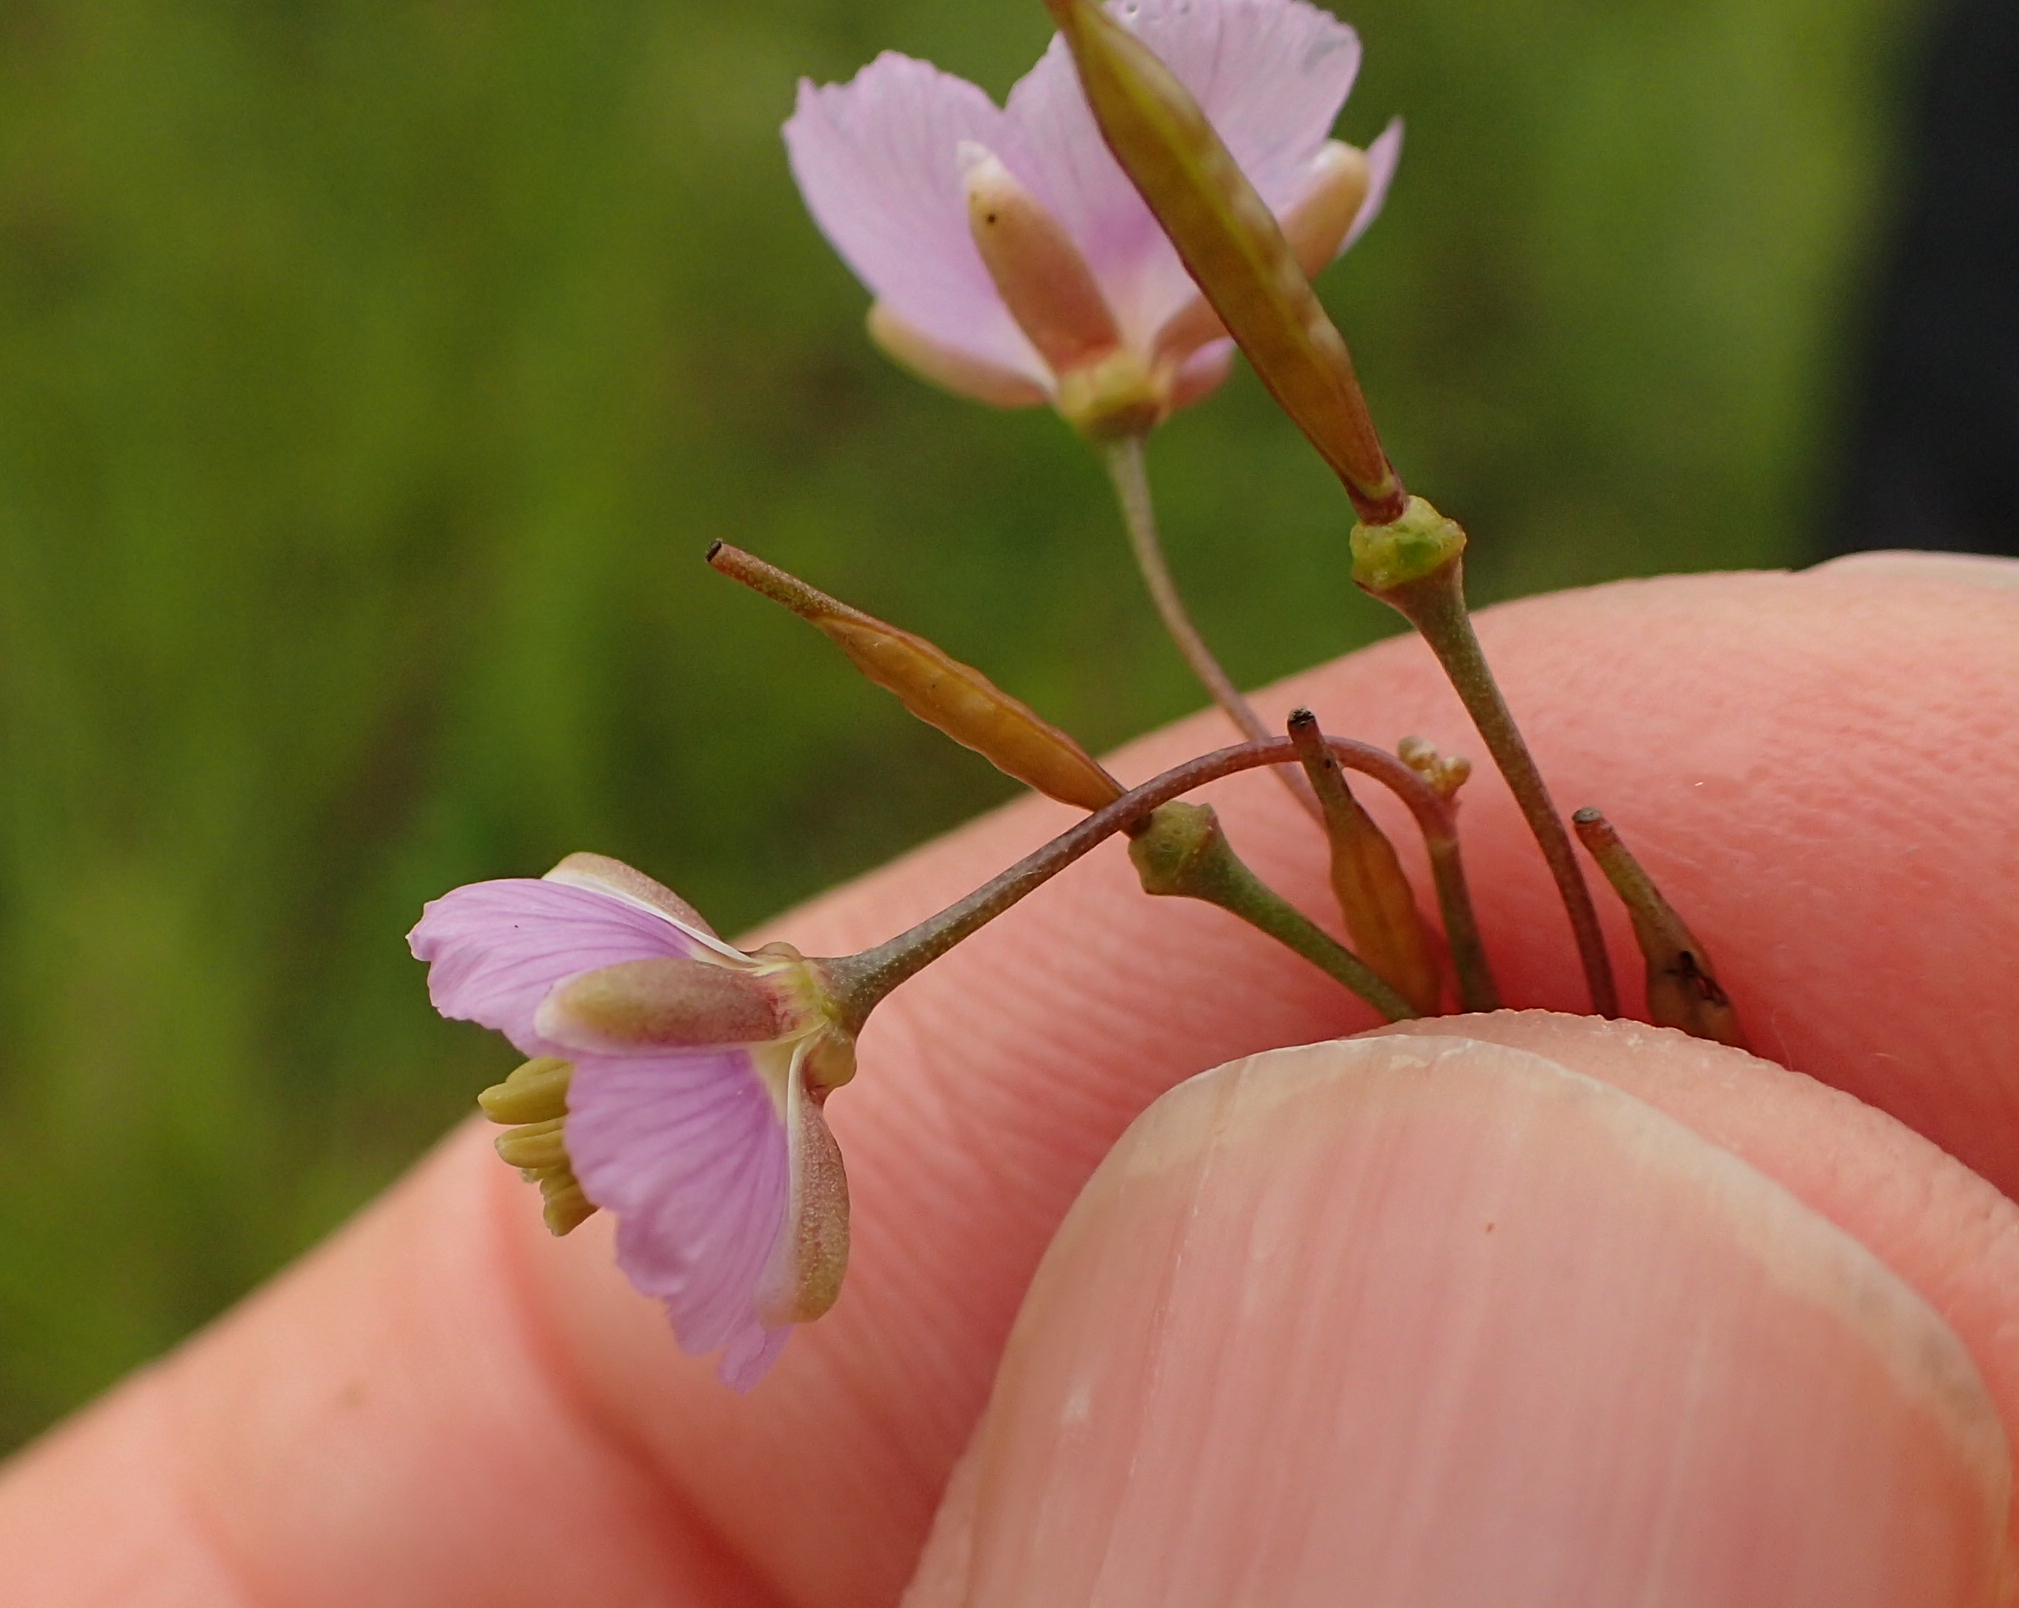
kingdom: Plantae
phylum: Tracheophyta
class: Magnoliopsida
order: Brassicales
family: Brassicaceae
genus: Heliophila
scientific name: Heliophila rigidiuscula
